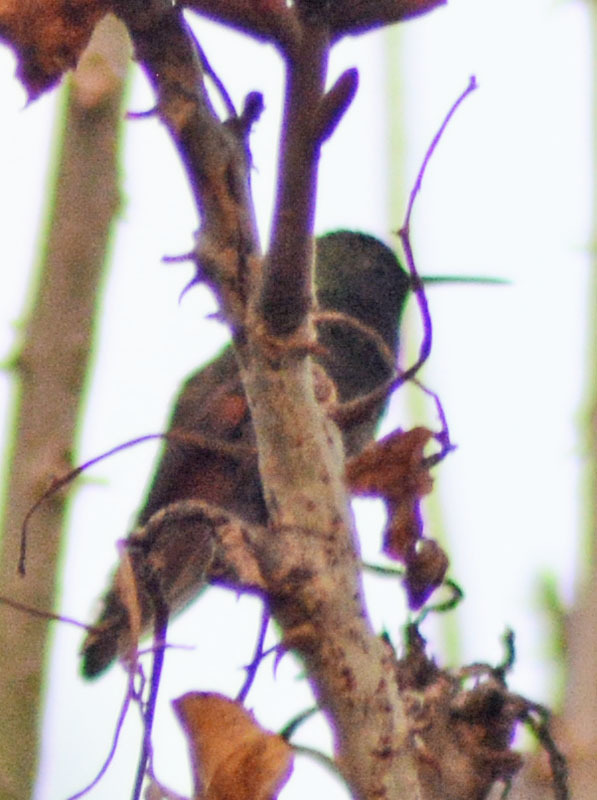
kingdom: Animalia
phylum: Chordata
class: Aves
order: Apodiformes
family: Trochilidae
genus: Saucerottia
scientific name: Saucerottia beryllina
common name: Berylline hummingbird
